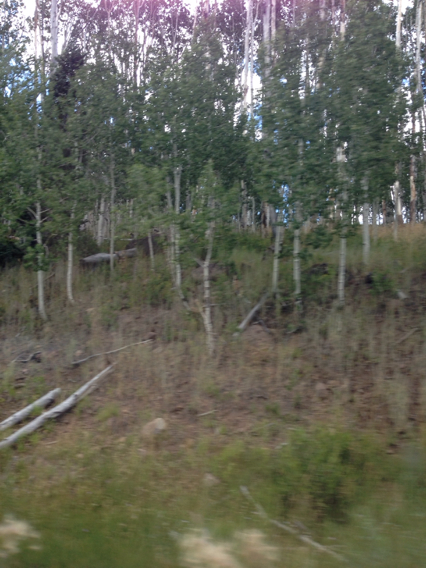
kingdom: Plantae
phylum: Tracheophyta
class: Magnoliopsida
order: Malpighiales
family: Salicaceae
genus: Populus
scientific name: Populus tremuloides
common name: Quaking aspen
